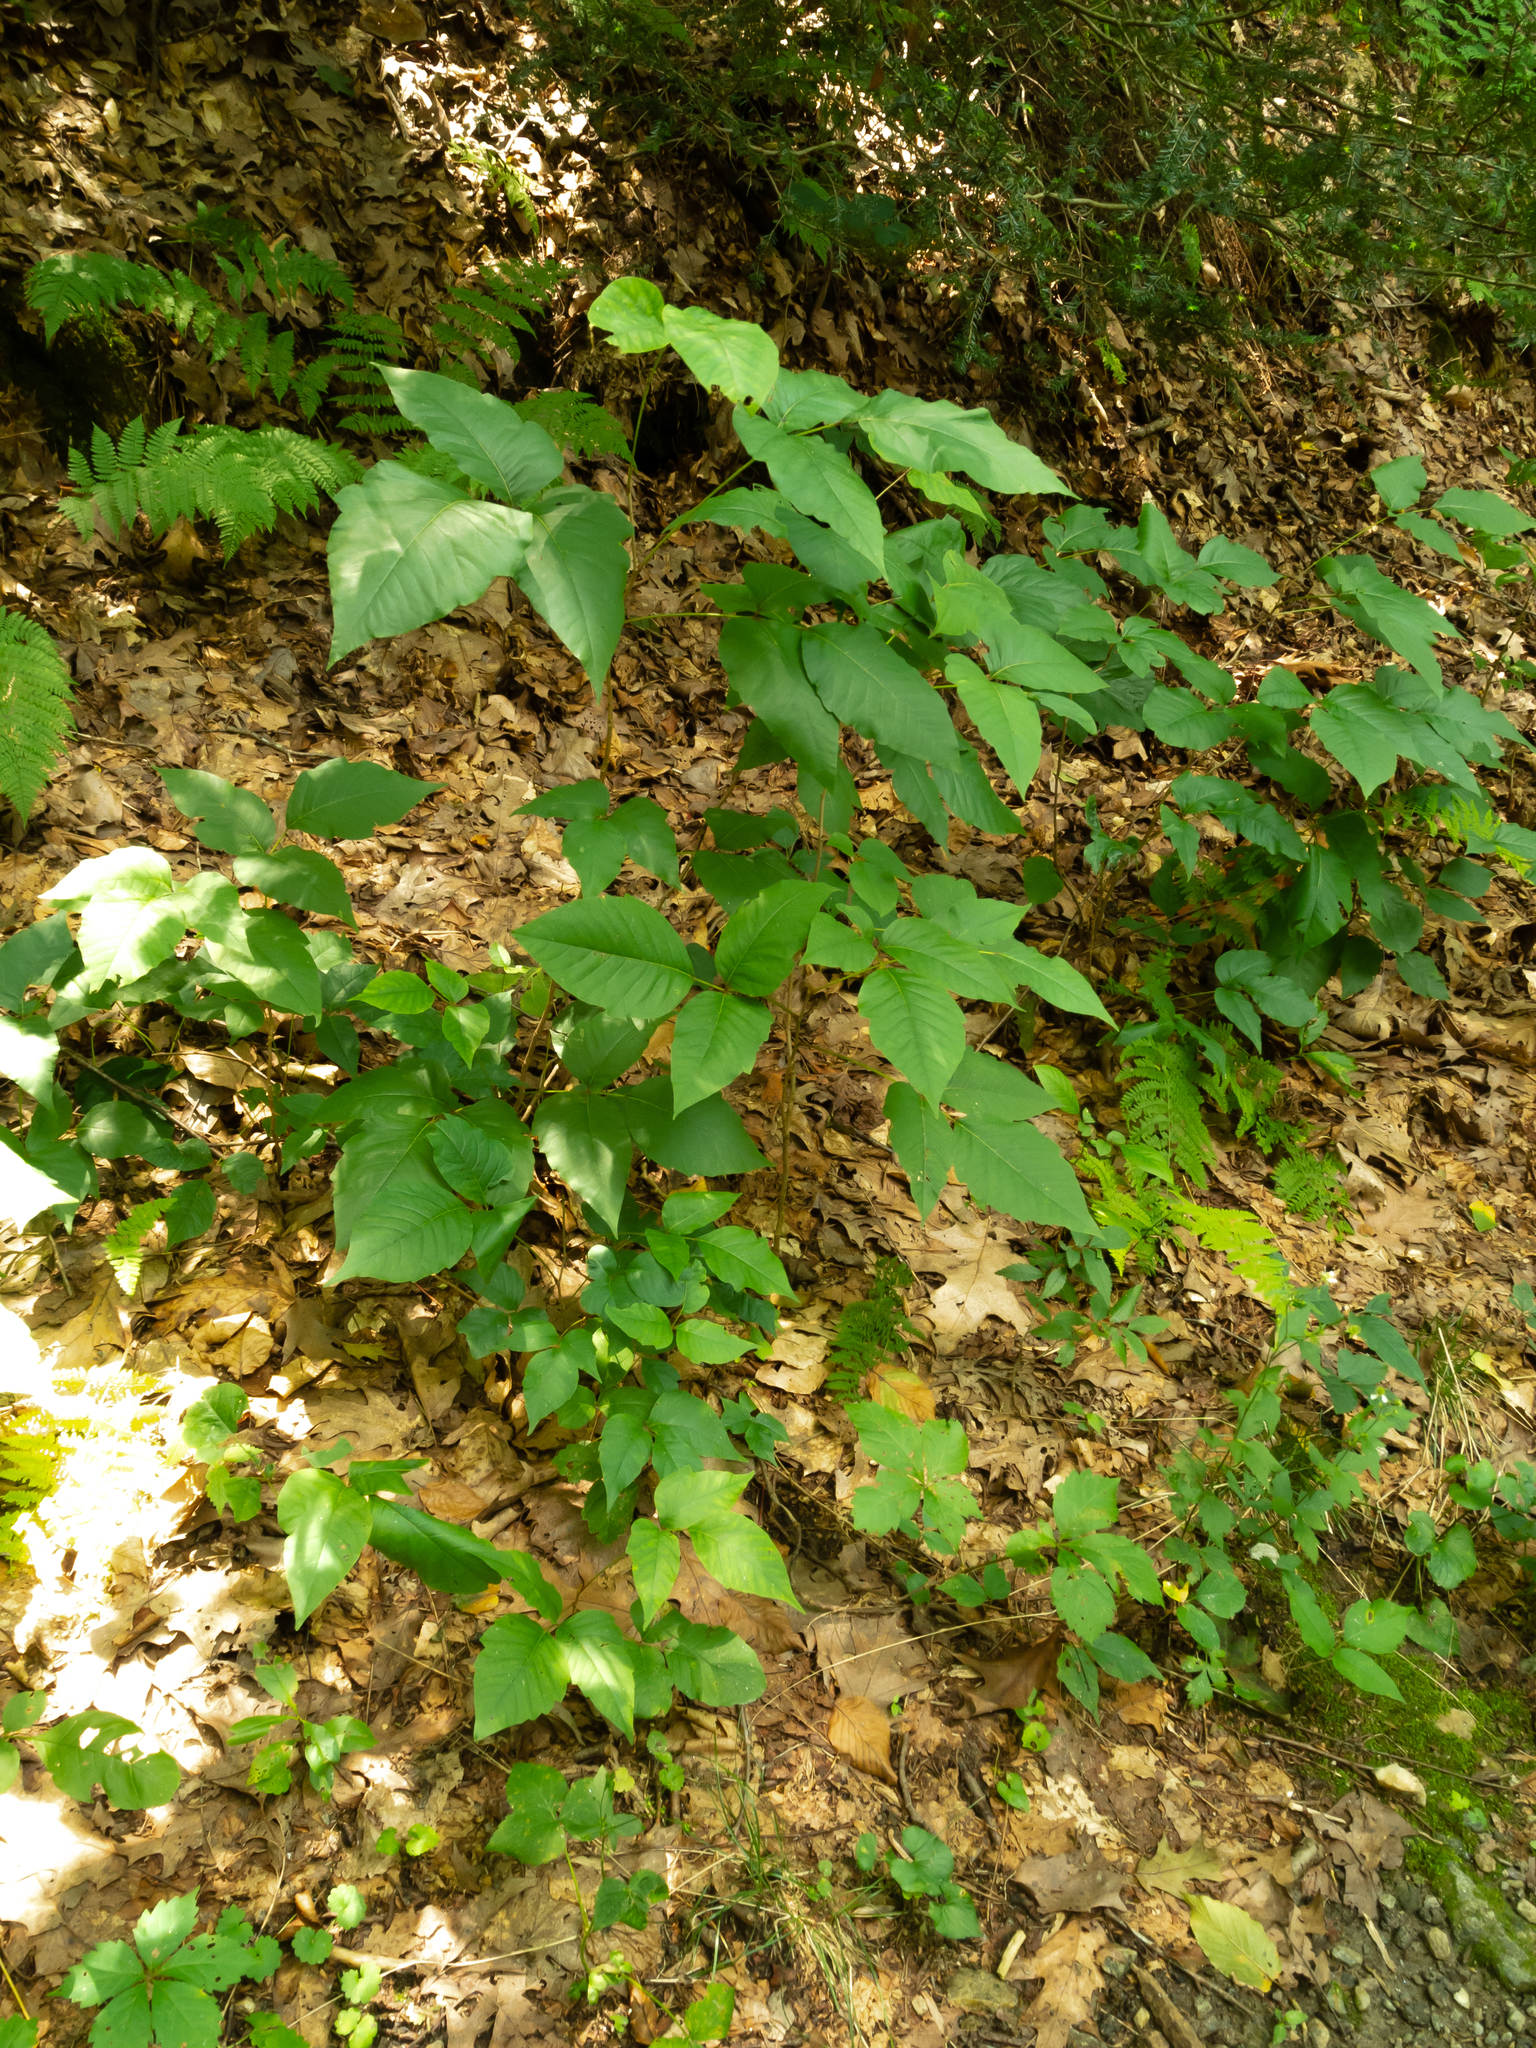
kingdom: Plantae
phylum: Tracheophyta
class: Magnoliopsida
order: Sapindales
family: Anacardiaceae
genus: Toxicodendron
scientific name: Toxicodendron radicans
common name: Poison ivy
